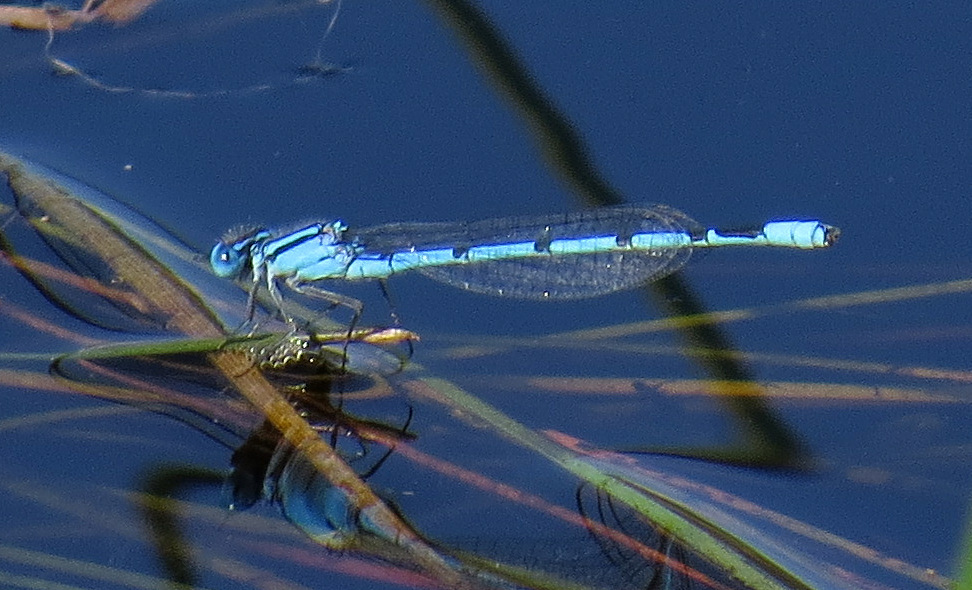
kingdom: Animalia
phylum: Arthropoda
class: Insecta
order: Odonata
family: Coenagrionidae
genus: Enallagma
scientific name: Enallagma doubledayi
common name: Atlantic bluet
